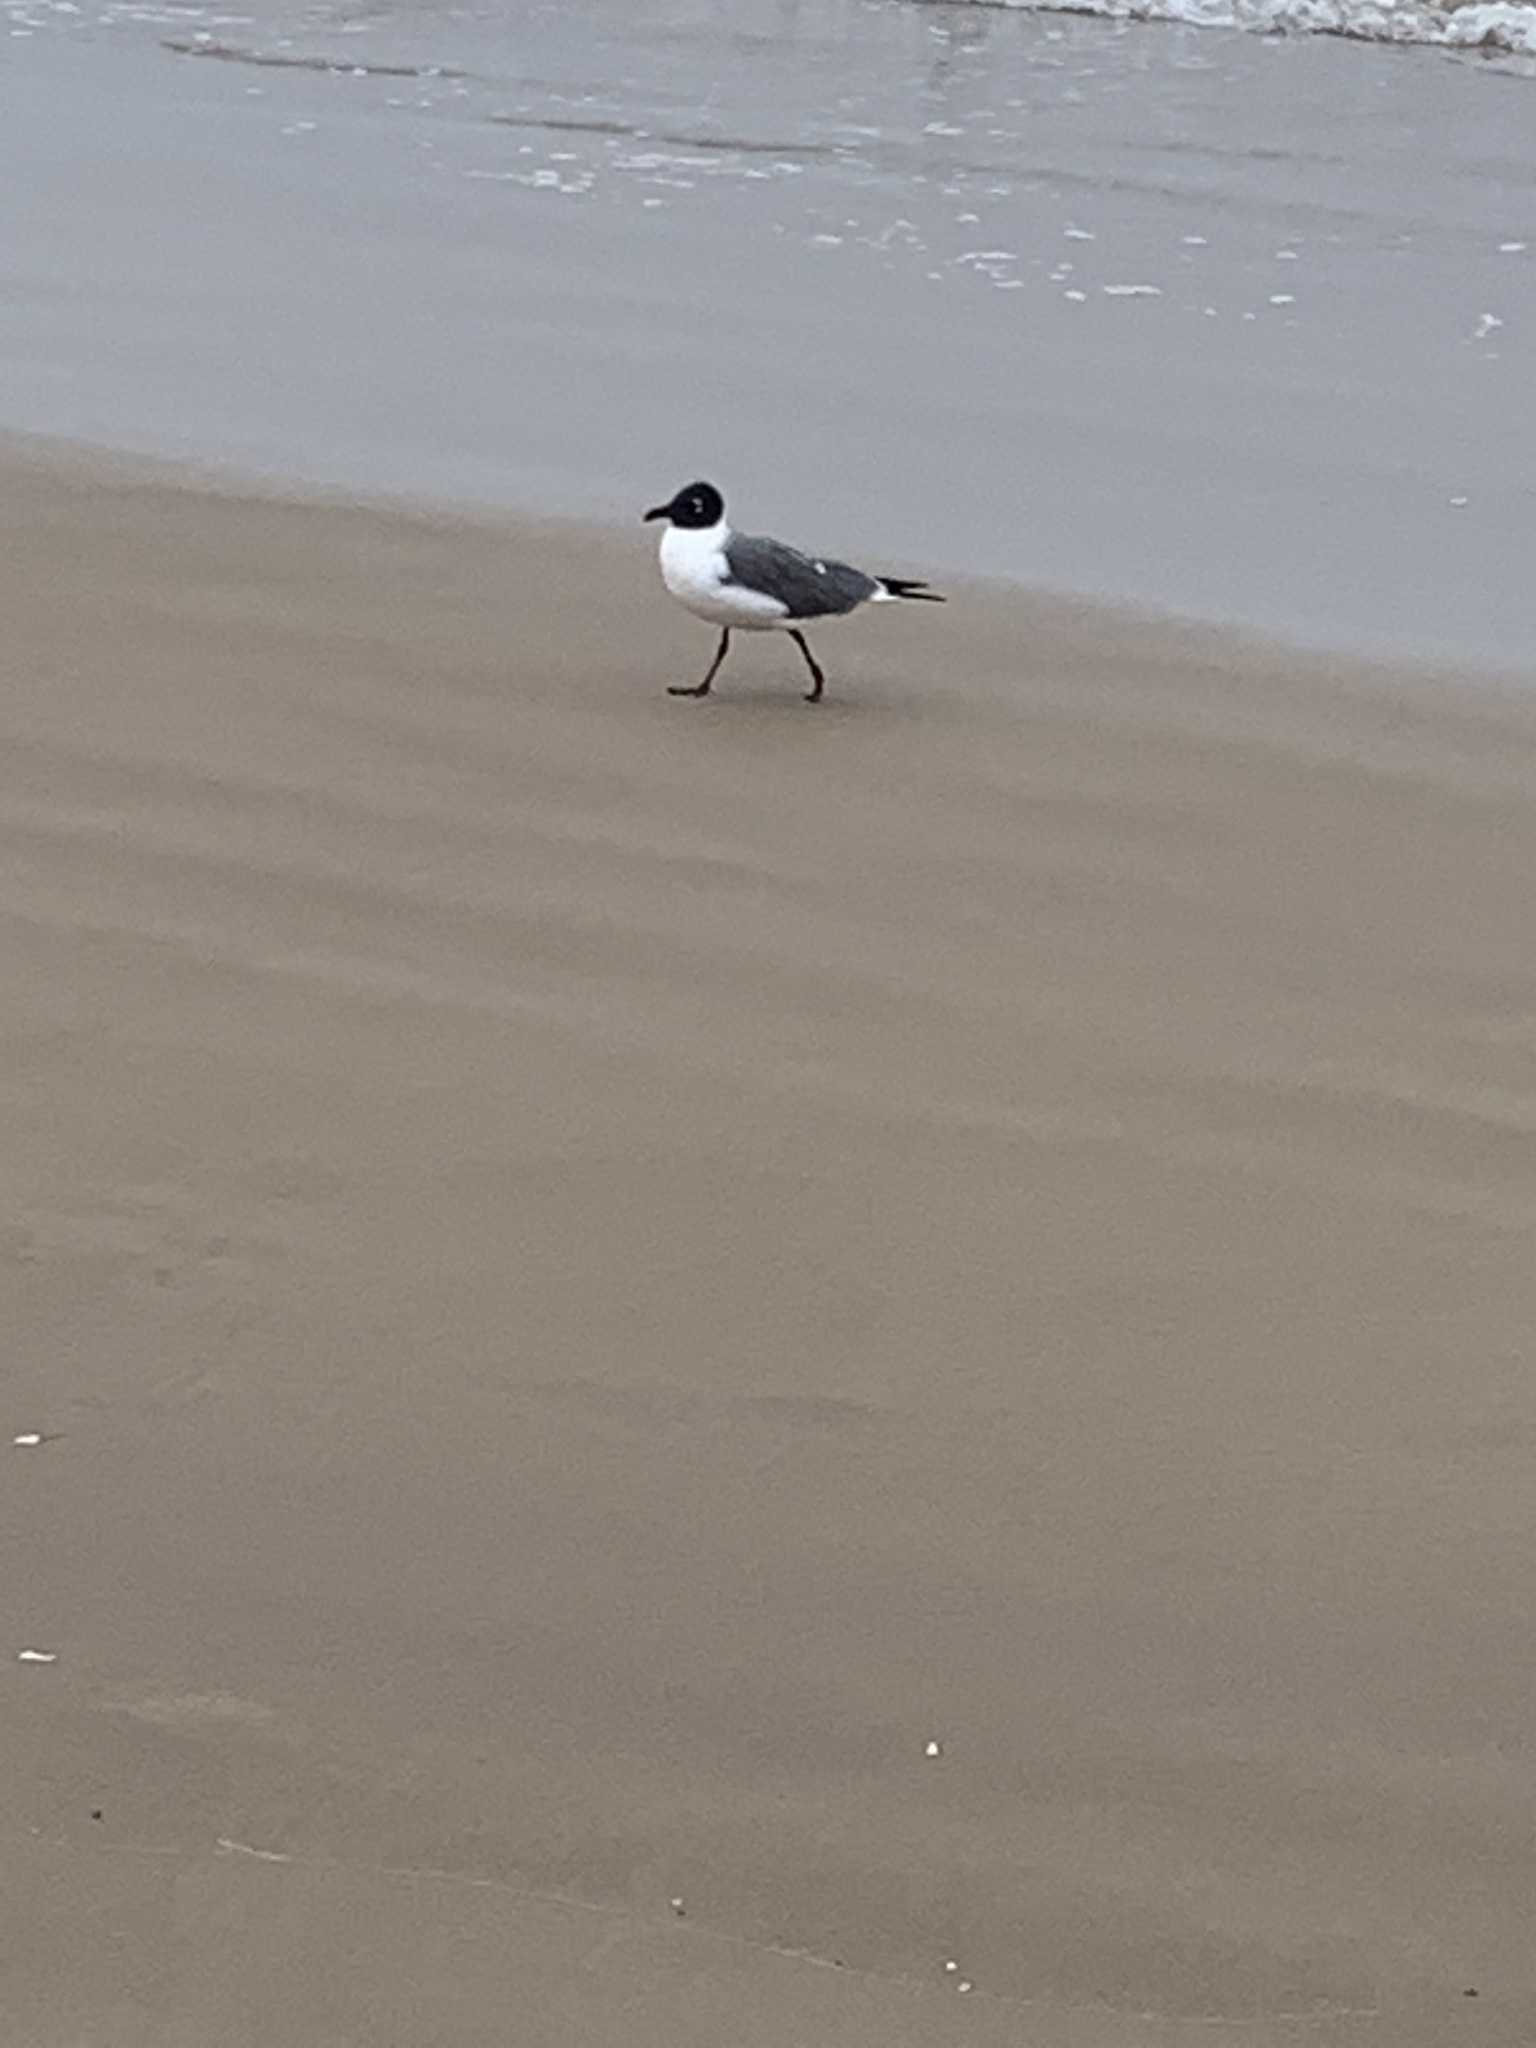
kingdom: Animalia
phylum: Chordata
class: Aves
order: Charadriiformes
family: Laridae
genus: Leucophaeus
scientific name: Leucophaeus atricilla
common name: Laughing gull
